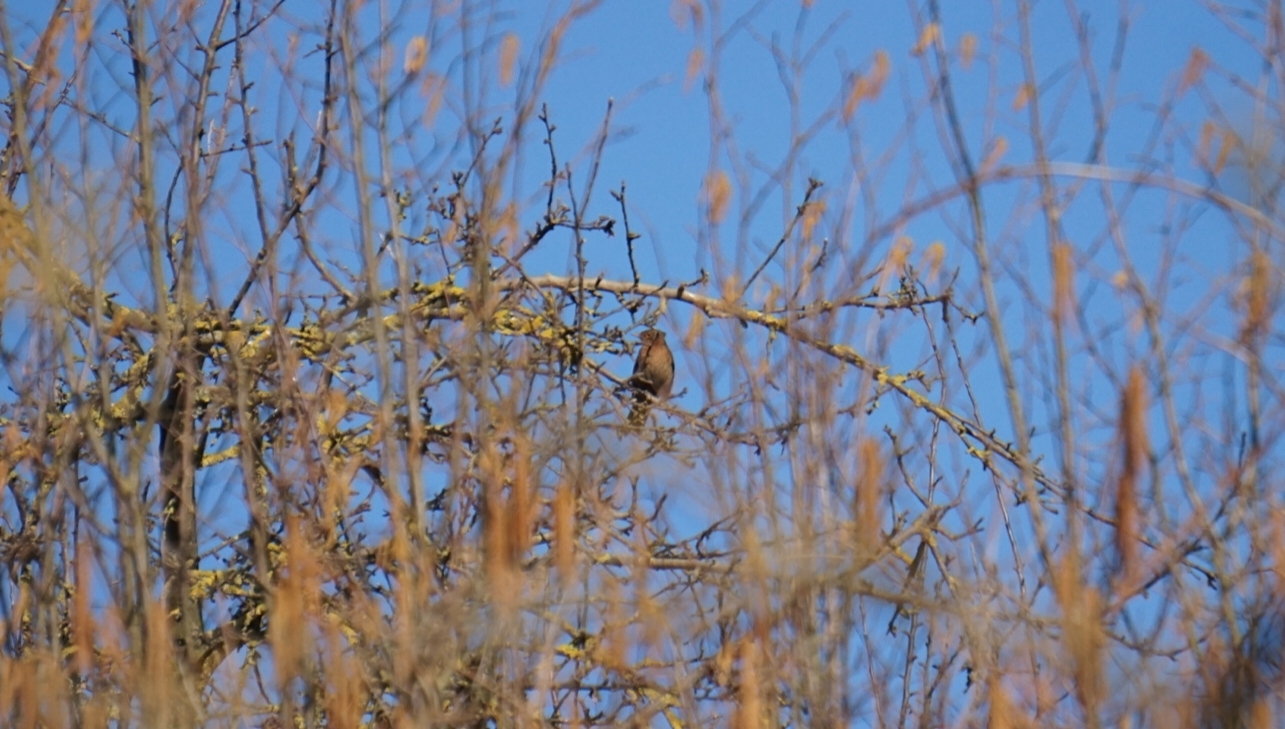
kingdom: Animalia
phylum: Chordata
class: Aves
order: Passeriformes
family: Turdidae
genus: Turdus
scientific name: Turdus merula
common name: Common blackbird
